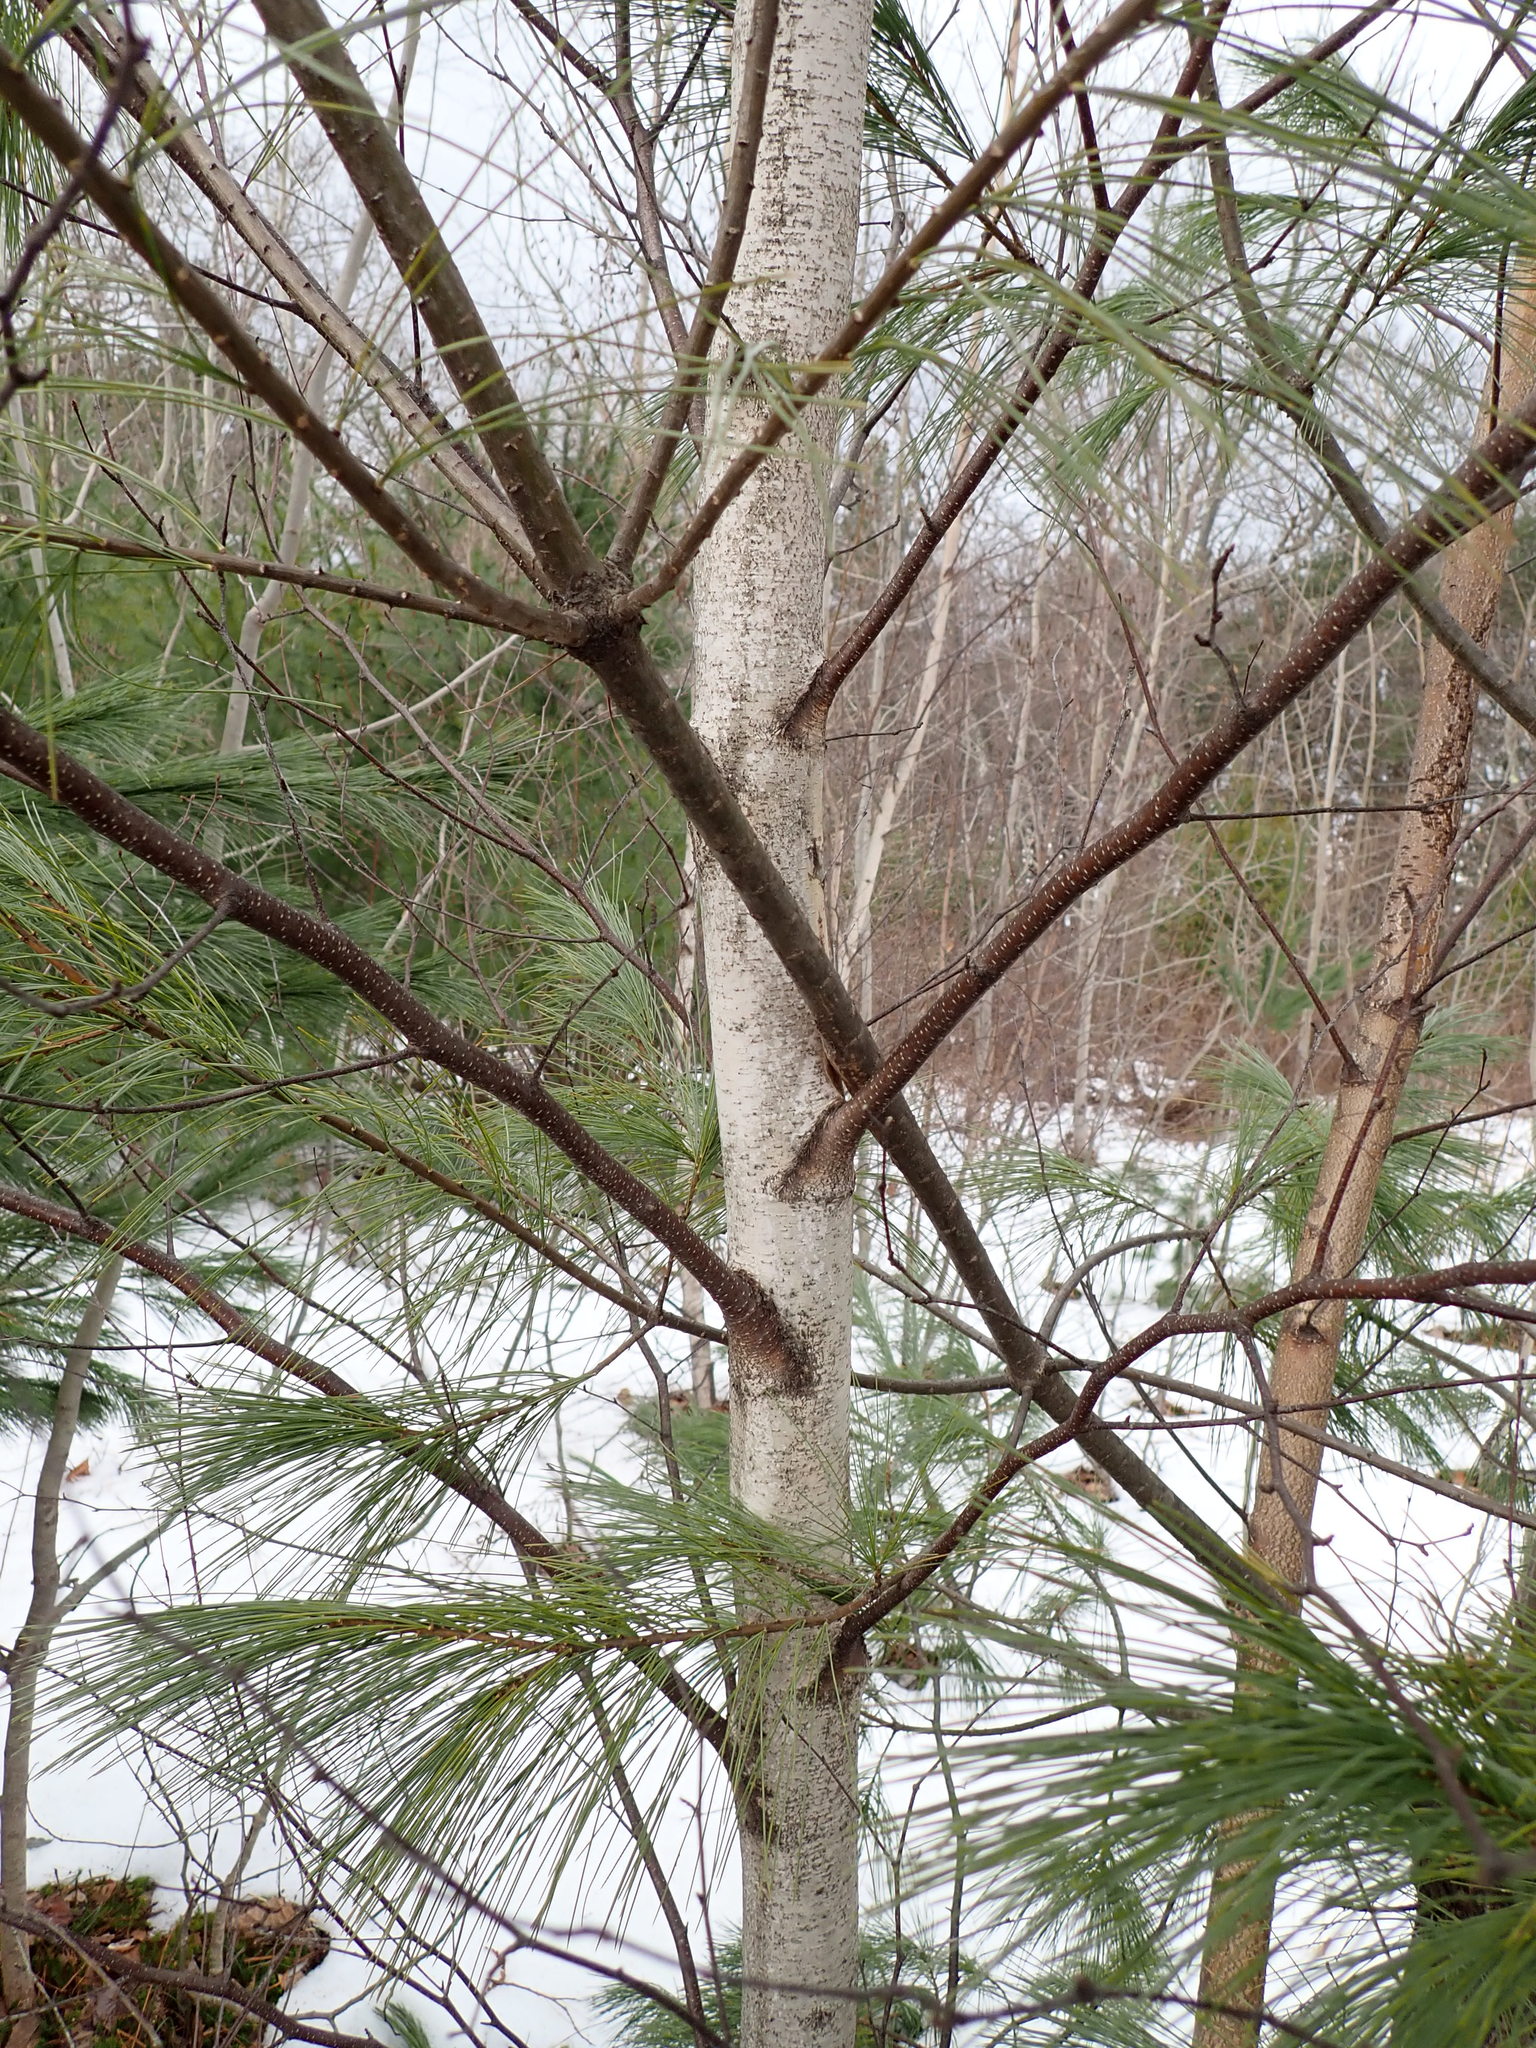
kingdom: Plantae
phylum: Tracheophyta
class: Magnoliopsida
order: Fagales
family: Betulaceae
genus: Betula
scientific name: Betula populifolia
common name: Fire birch
